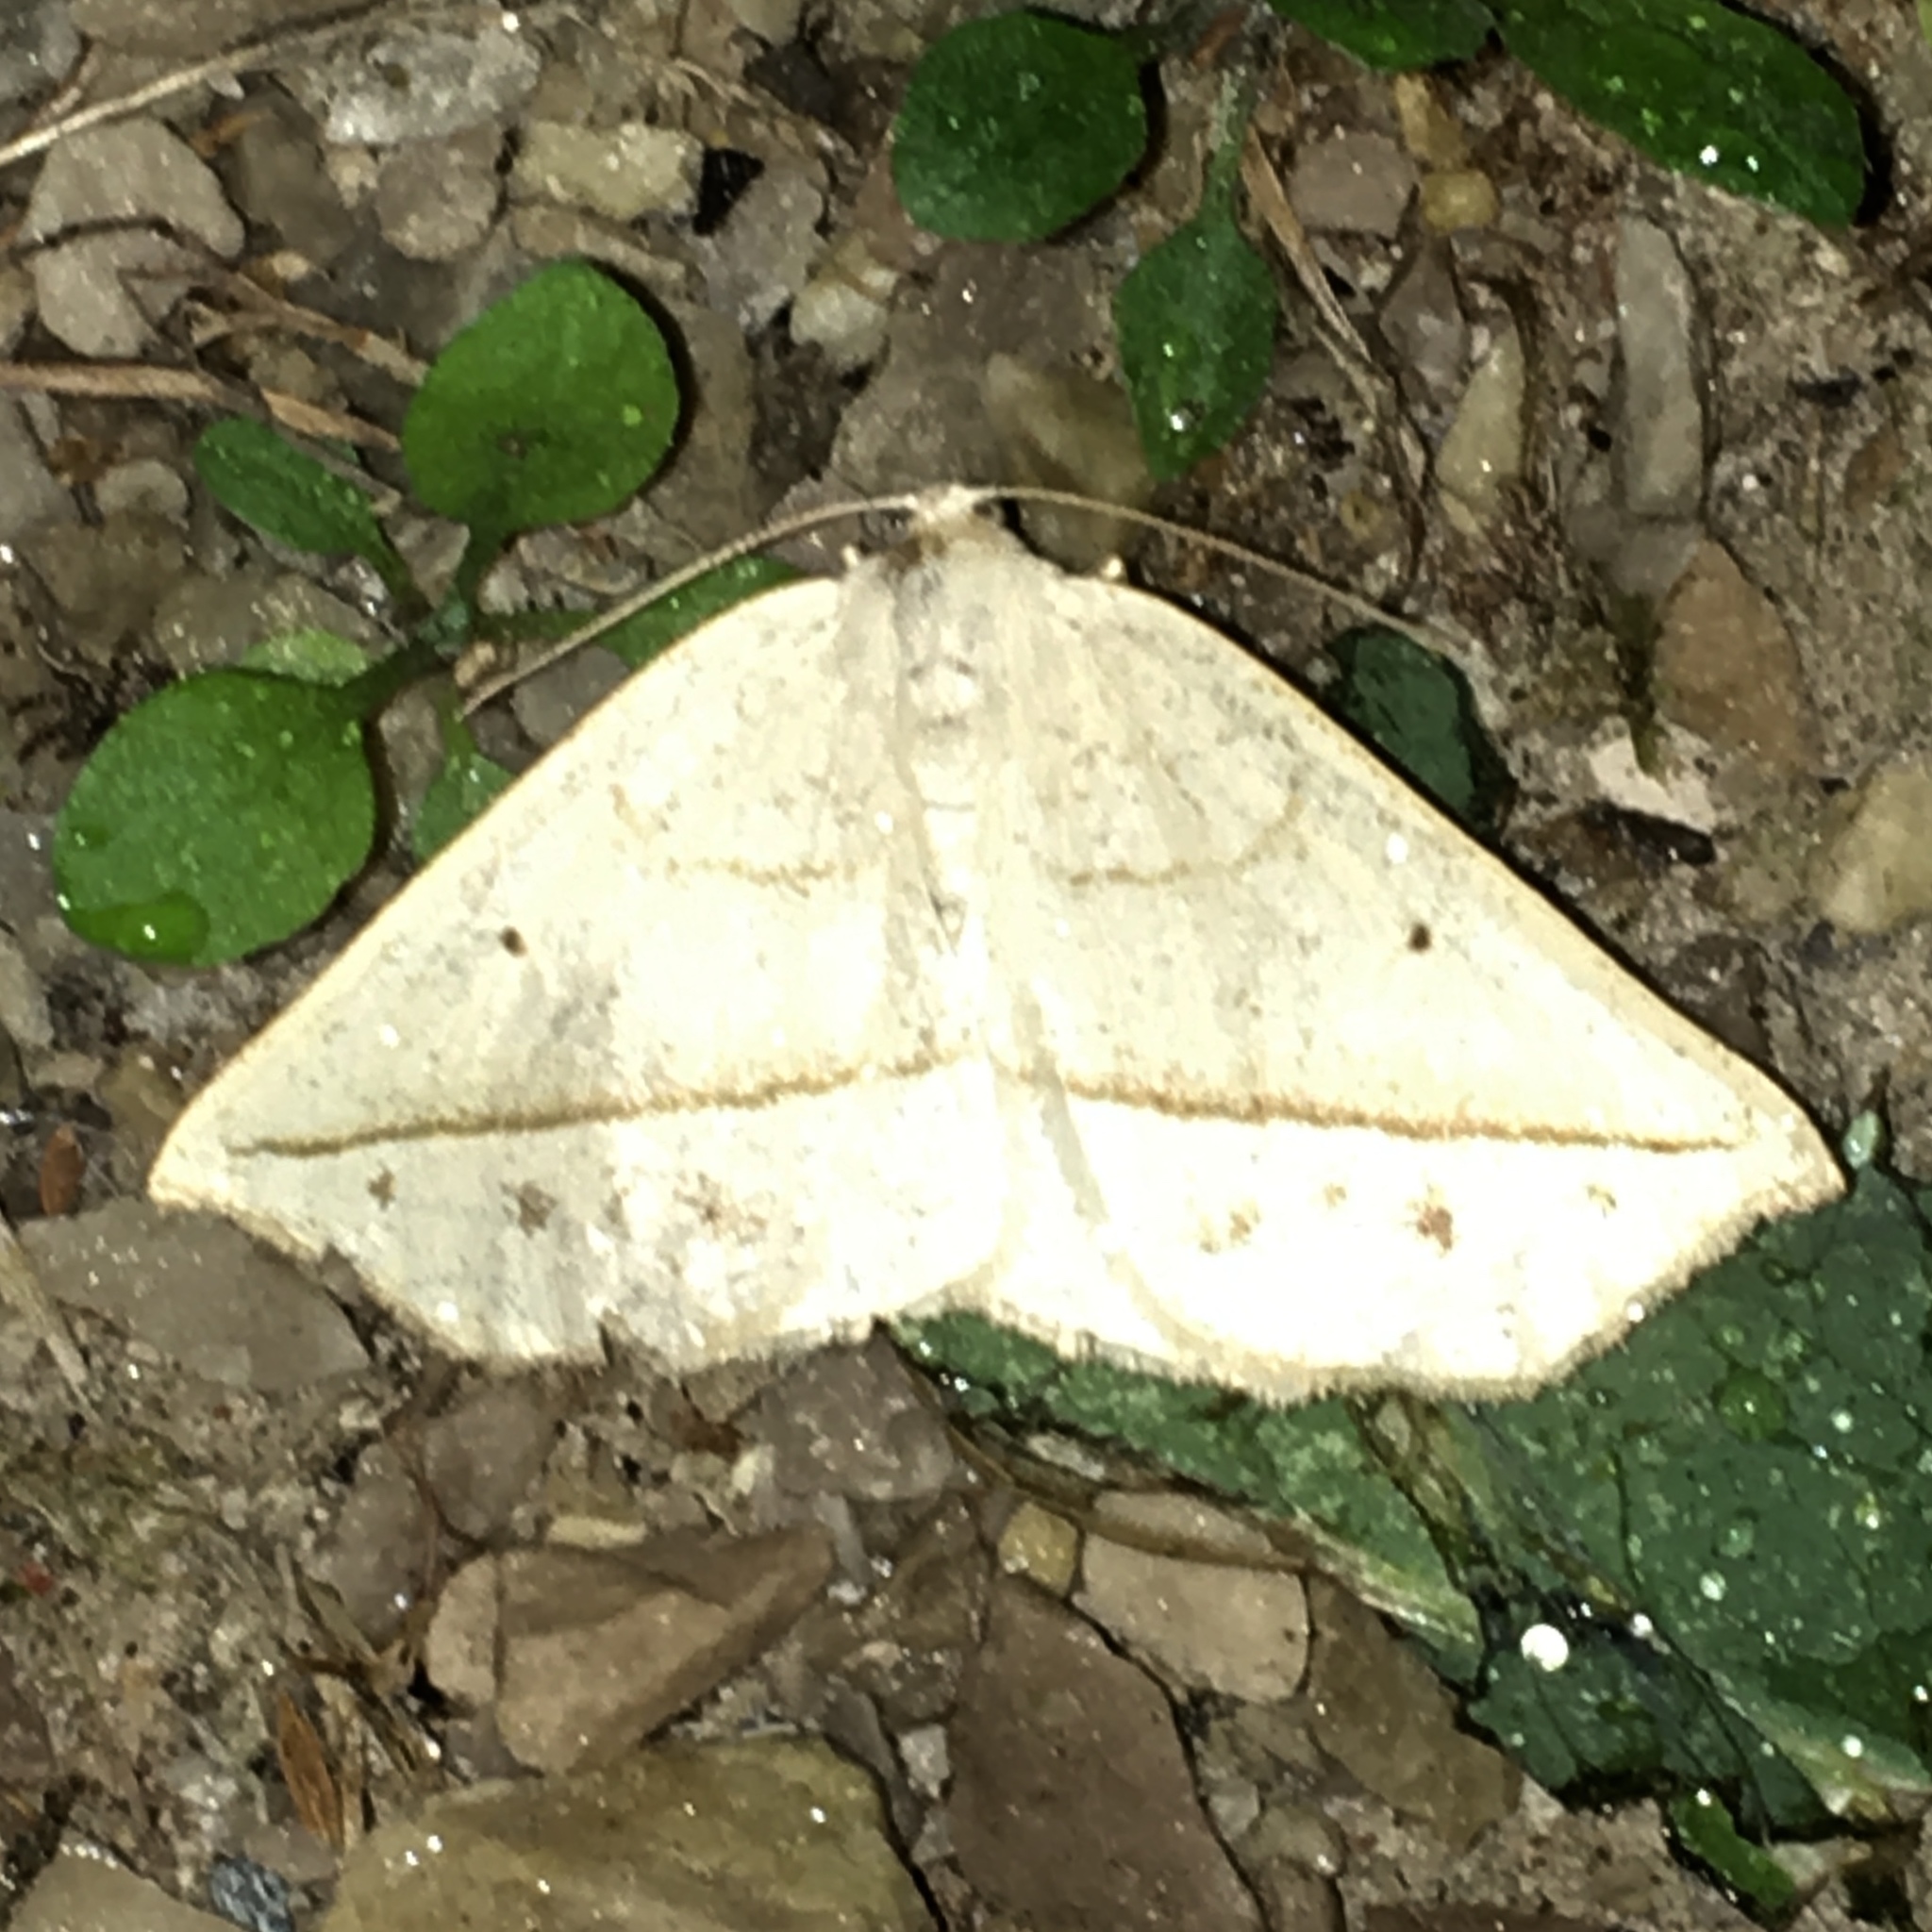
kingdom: Animalia
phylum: Arthropoda
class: Insecta
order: Lepidoptera
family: Geometridae
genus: Eusarca
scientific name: Eusarca confusaria
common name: Confused eusarca
